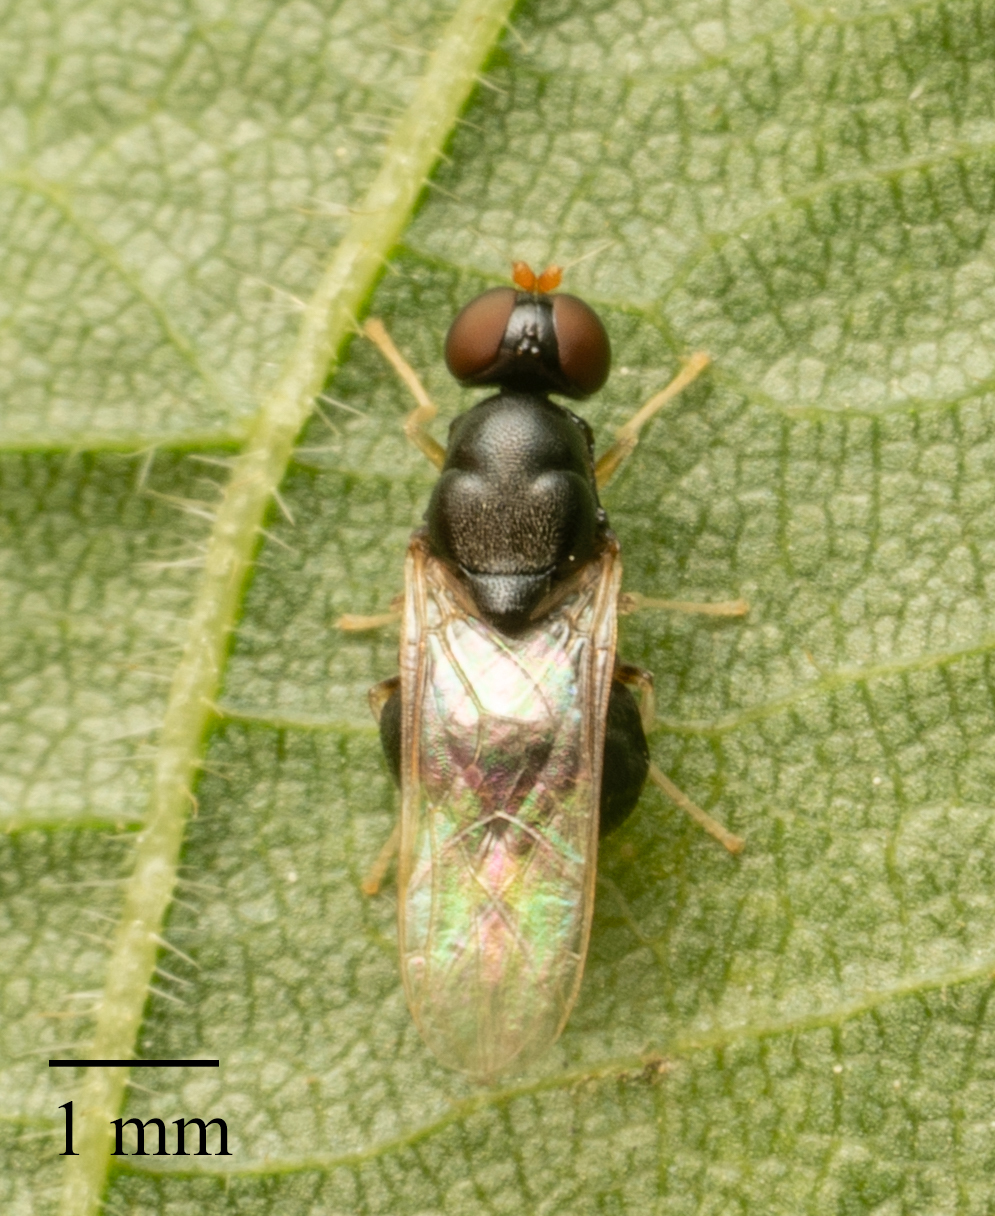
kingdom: Animalia
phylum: Arthropoda
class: Insecta
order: Diptera
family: Stratiomyidae
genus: Pachygaster
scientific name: Pachygaster leachii
